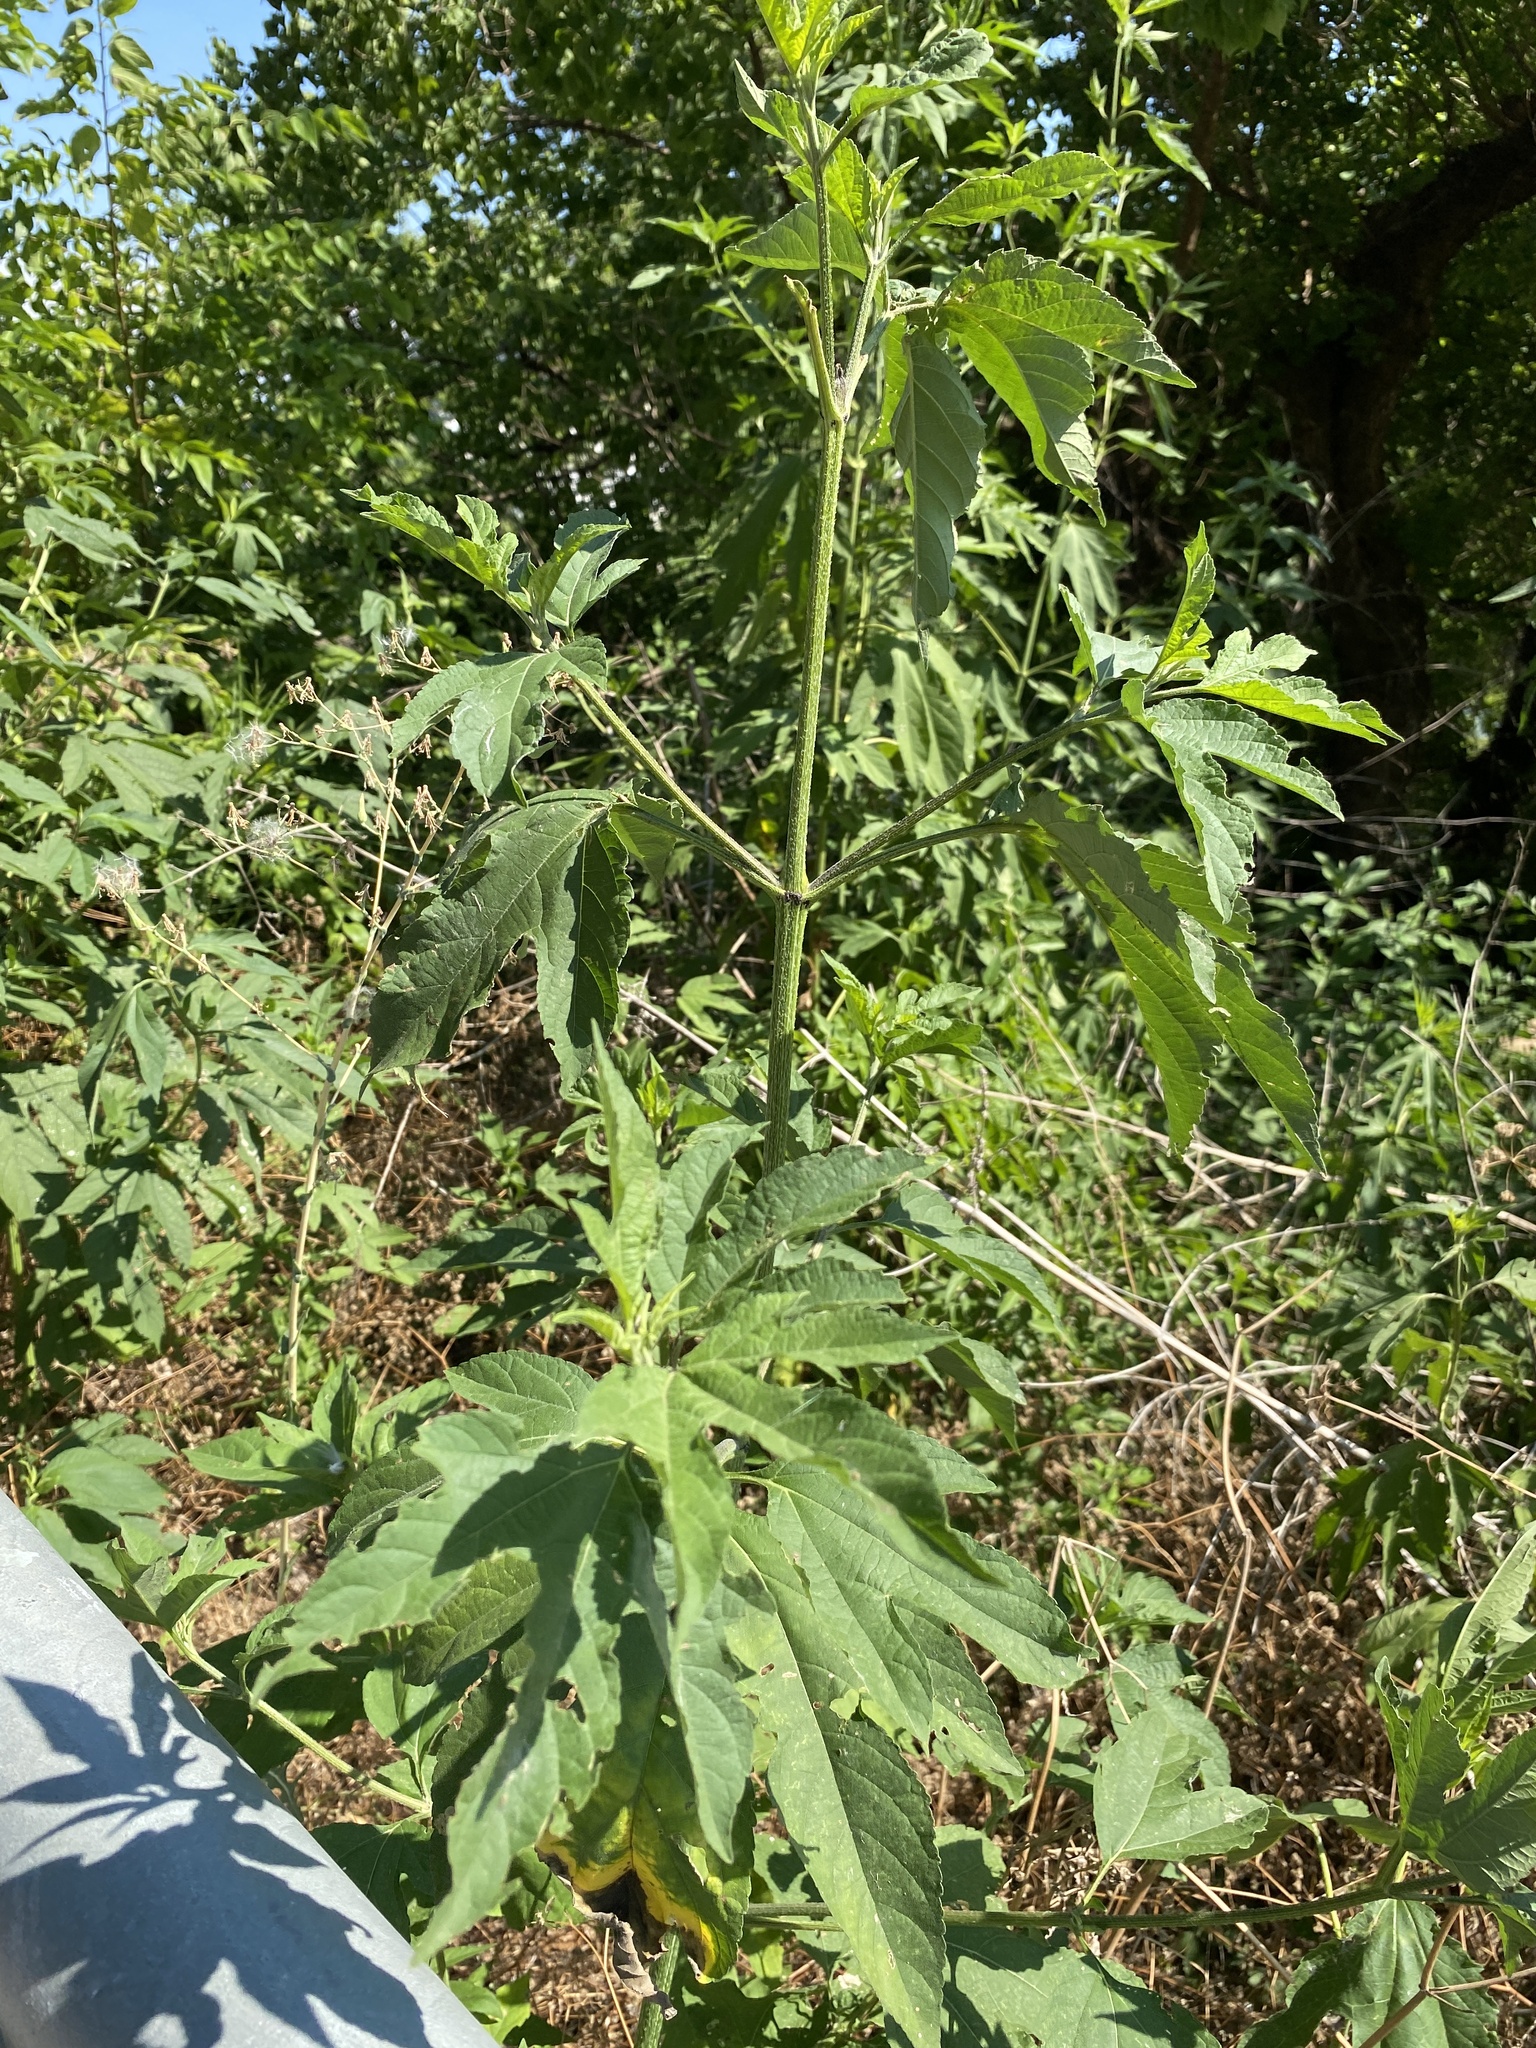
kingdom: Plantae
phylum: Tracheophyta
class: Magnoliopsida
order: Asterales
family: Asteraceae
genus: Ambrosia
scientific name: Ambrosia trifida
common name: Giant ragweed
